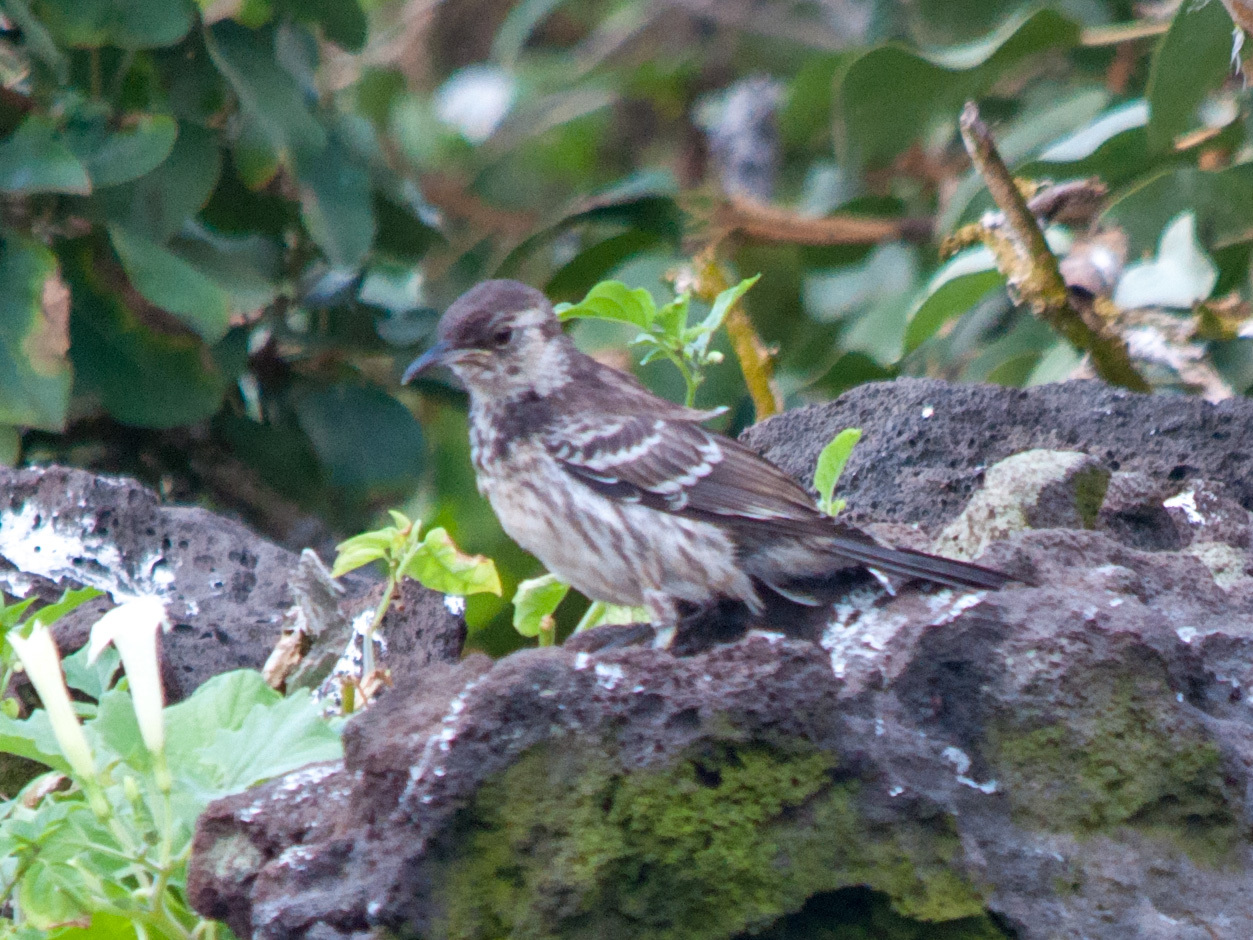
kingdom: Animalia
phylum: Chordata
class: Aves
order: Passeriformes
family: Mimidae
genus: Mimus
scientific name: Mimus trifasciatus
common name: Floreana mockingbird
